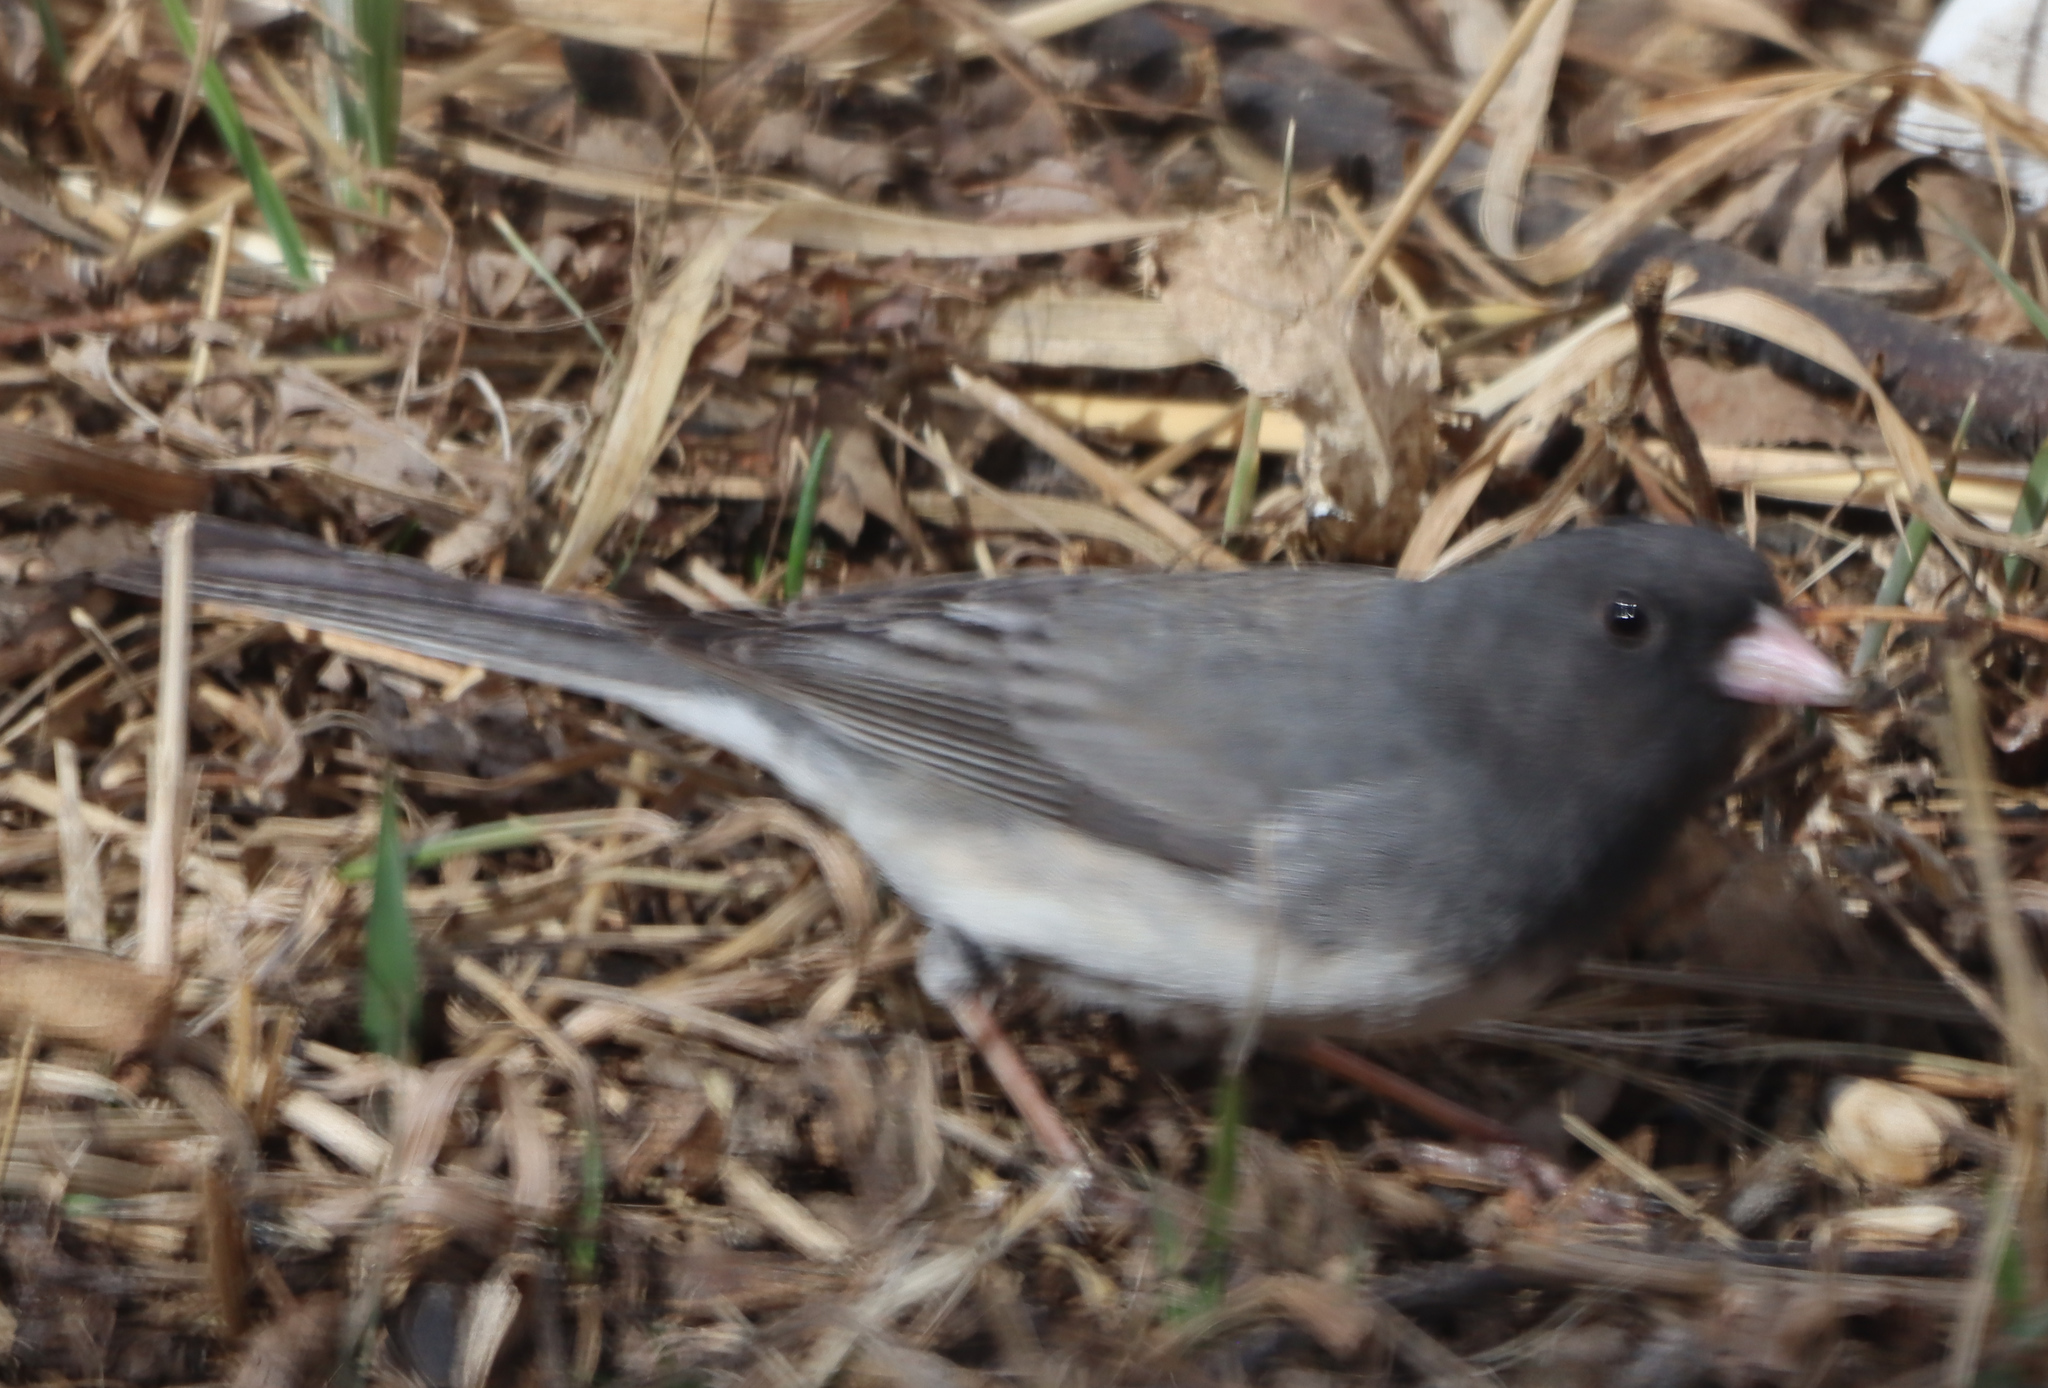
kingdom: Animalia
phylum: Chordata
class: Aves
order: Passeriformes
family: Passerellidae
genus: Junco
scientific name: Junco hyemalis
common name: Dark-eyed junco
